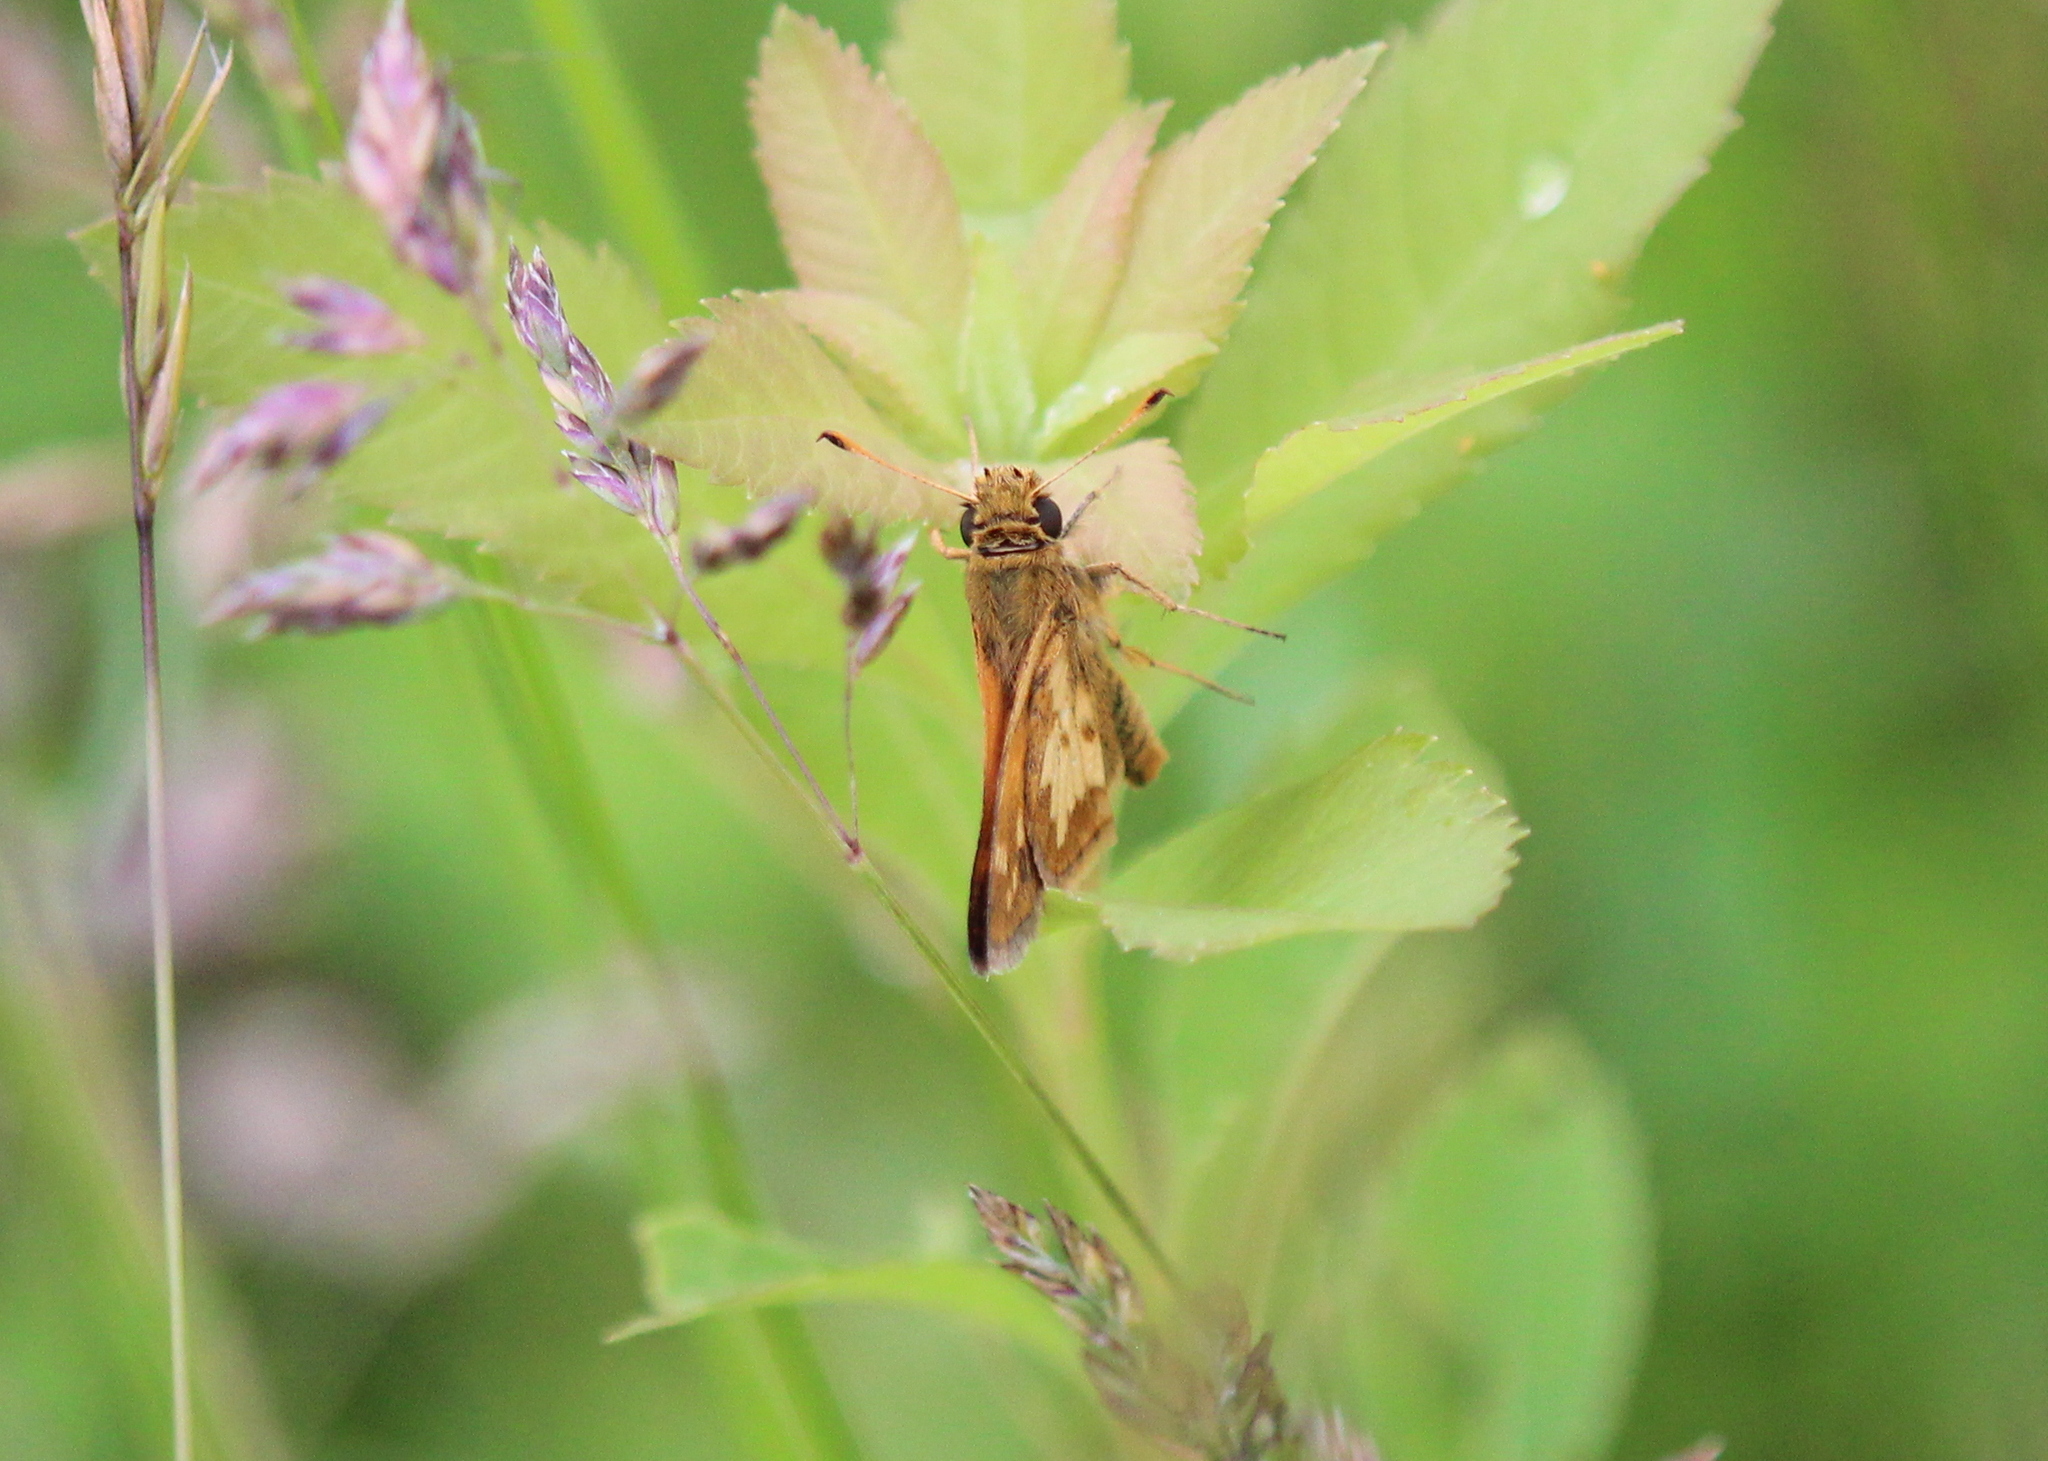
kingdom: Animalia
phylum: Arthropoda
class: Insecta
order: Lepidoptera
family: Hesperiidae
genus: Polites
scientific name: Polites coras
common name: Peck's skipper
